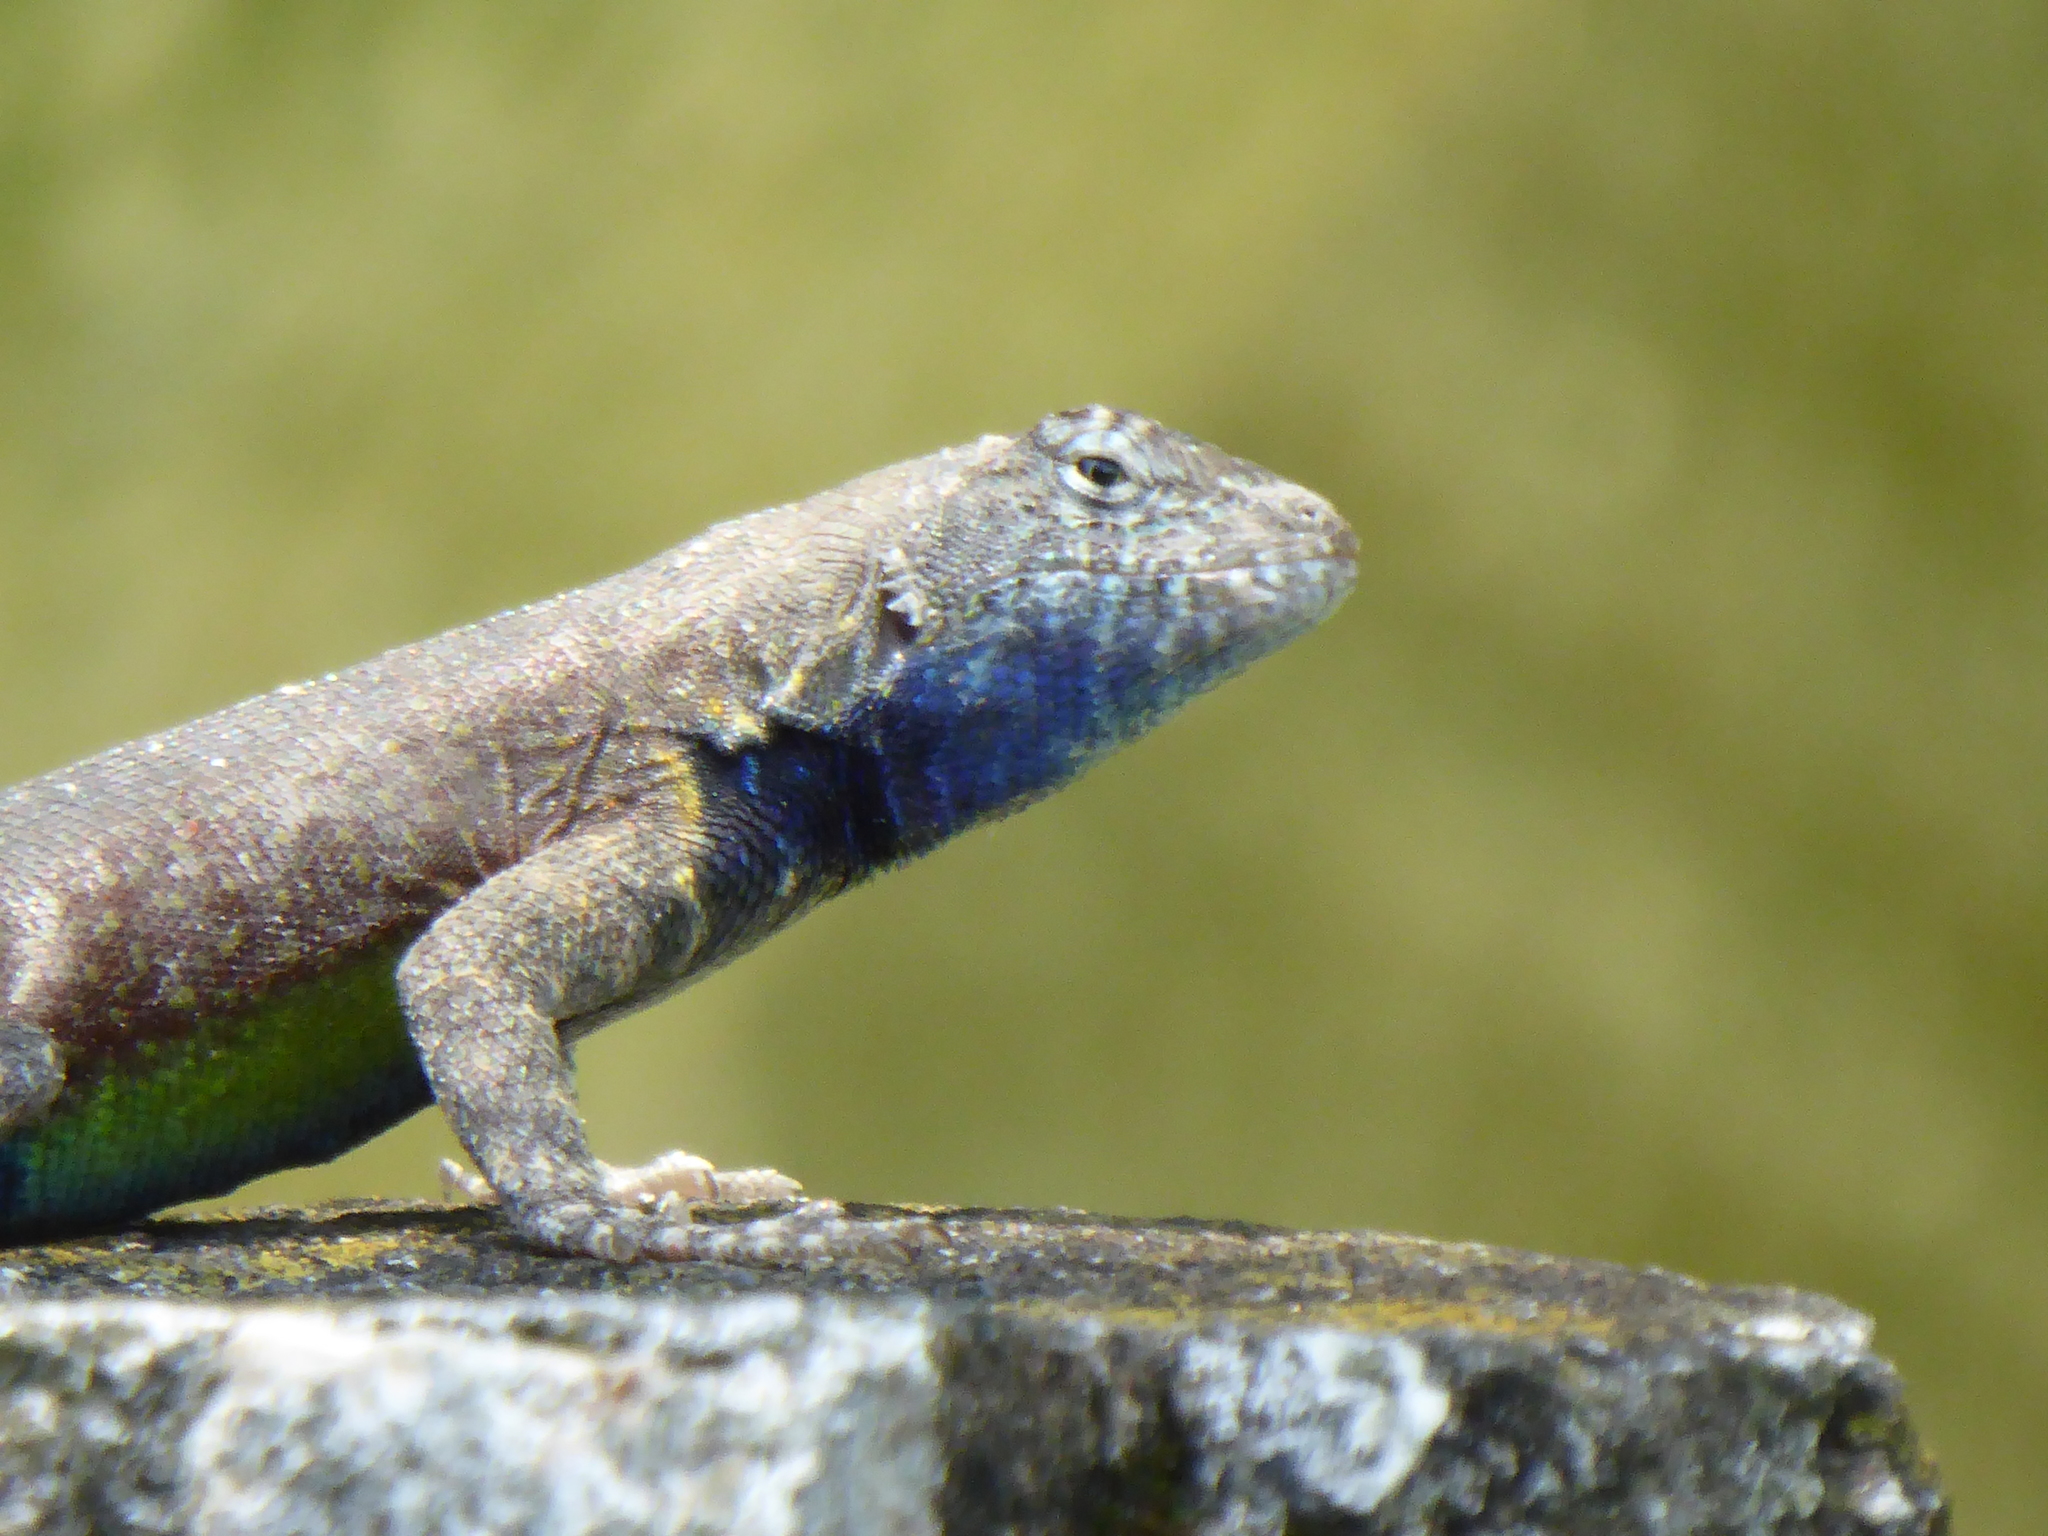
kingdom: Animalia
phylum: Chordata
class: Squamata
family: Phrynosomatidae
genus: Sceloporus
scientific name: Sceloporus gadoviae
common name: Gadow's spiny lizard
